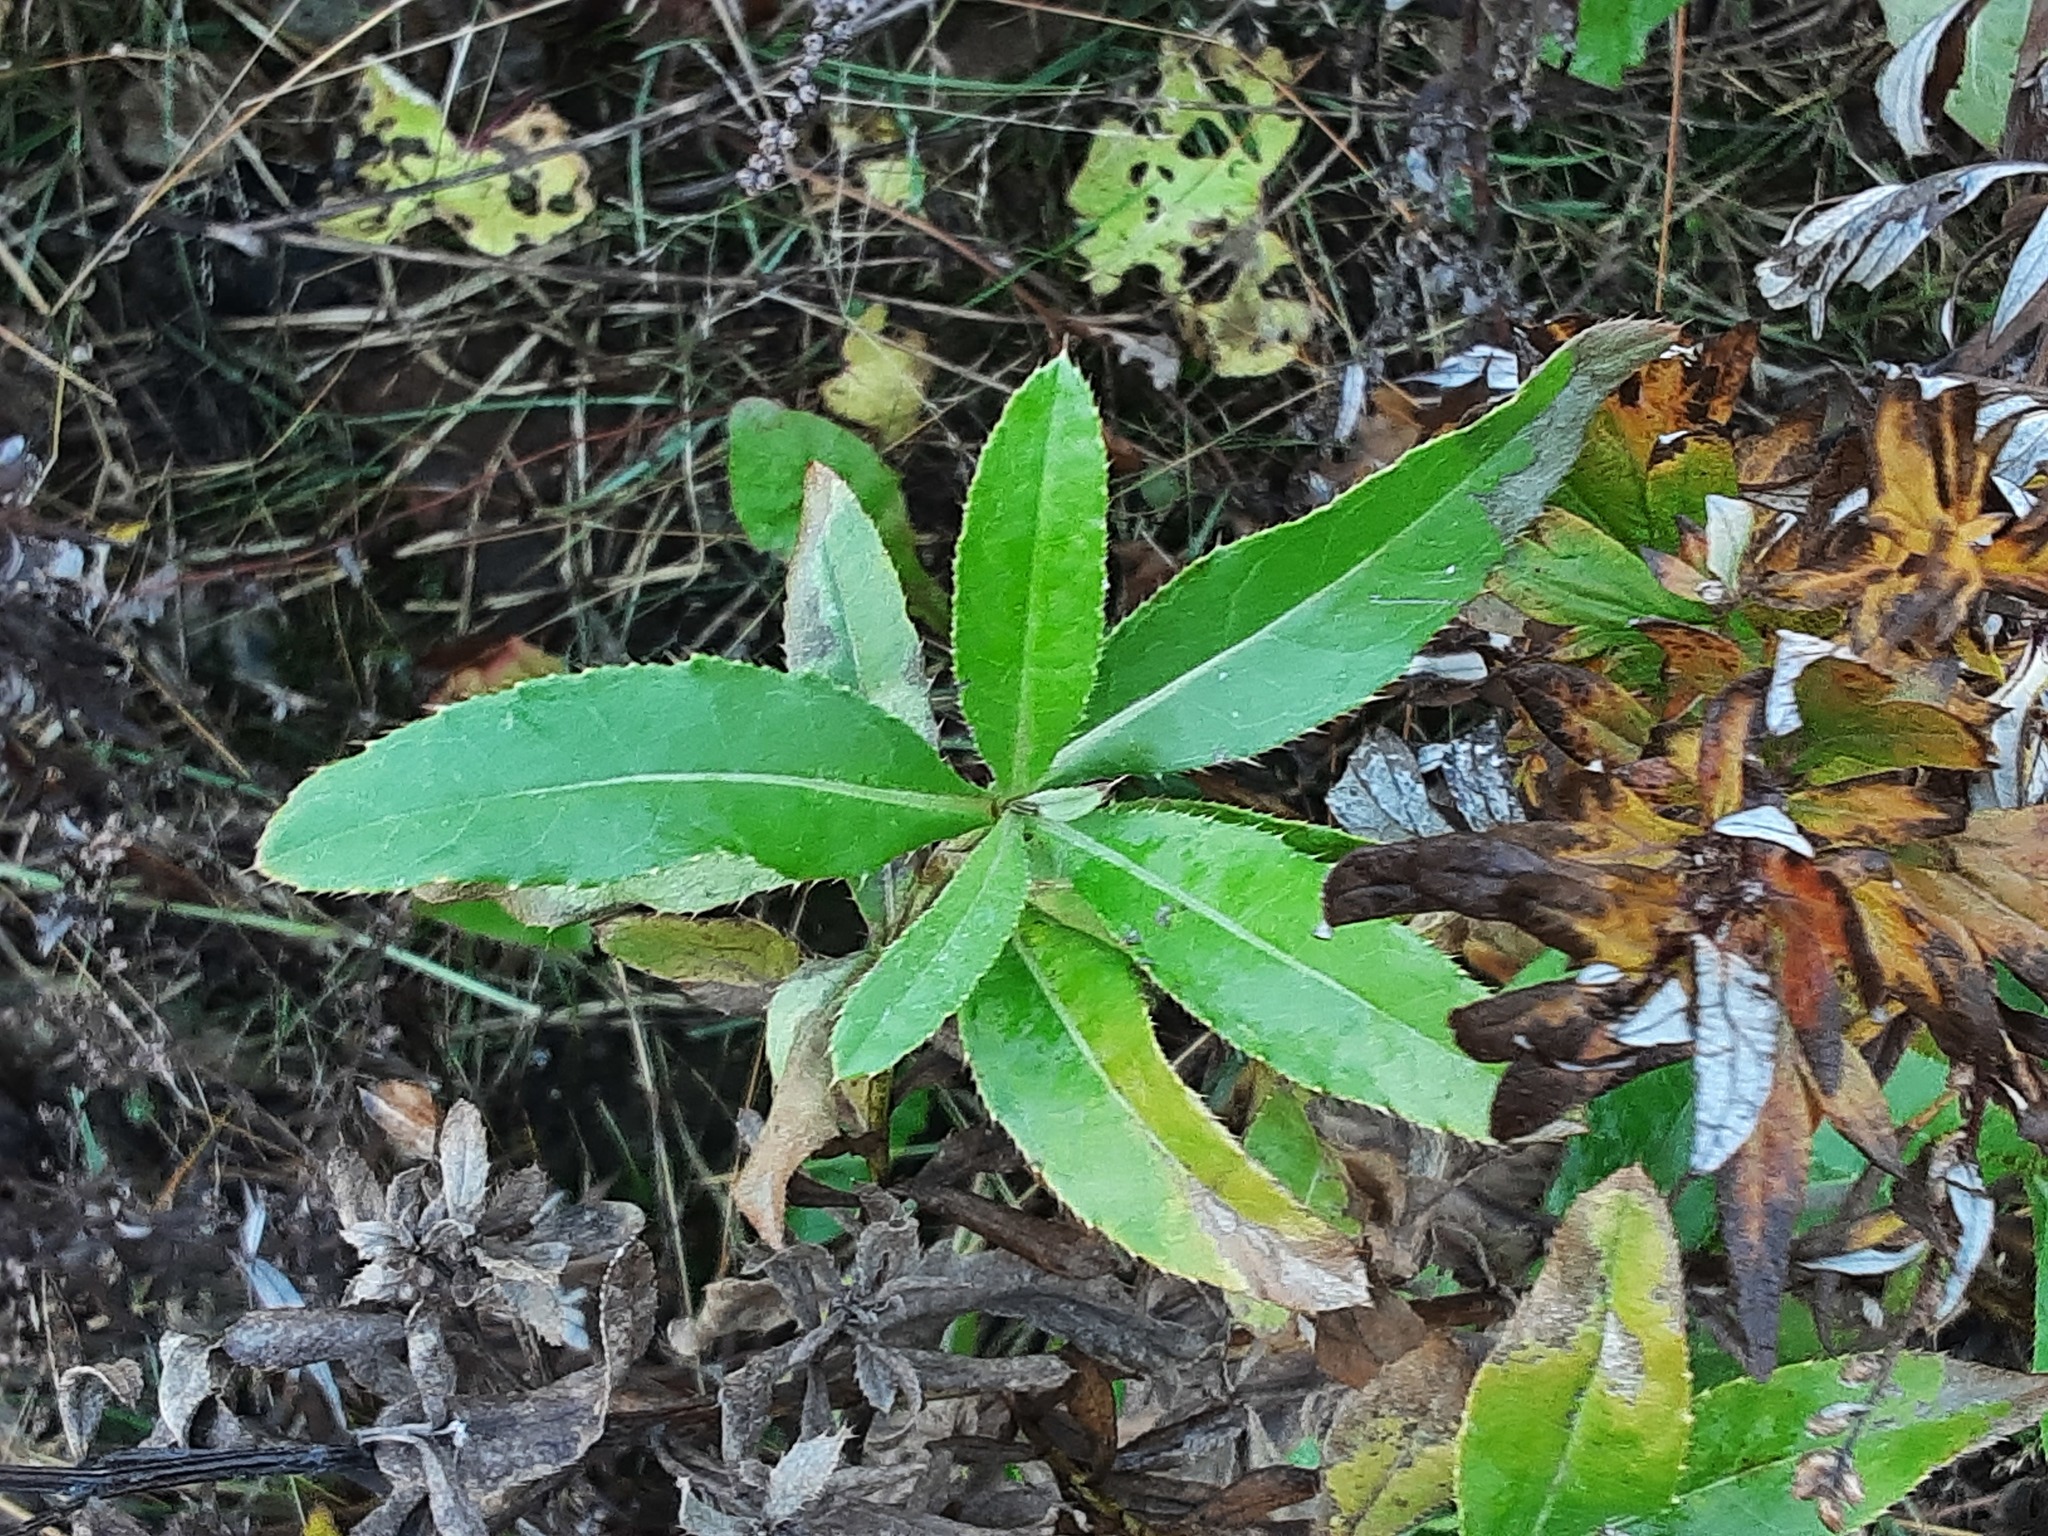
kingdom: Plantae
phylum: Tracheophyta
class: Magnoliopsida
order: Asterales
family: Asteraceae
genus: Cirsium
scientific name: Cirsium arvense
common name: Creeping thistle
